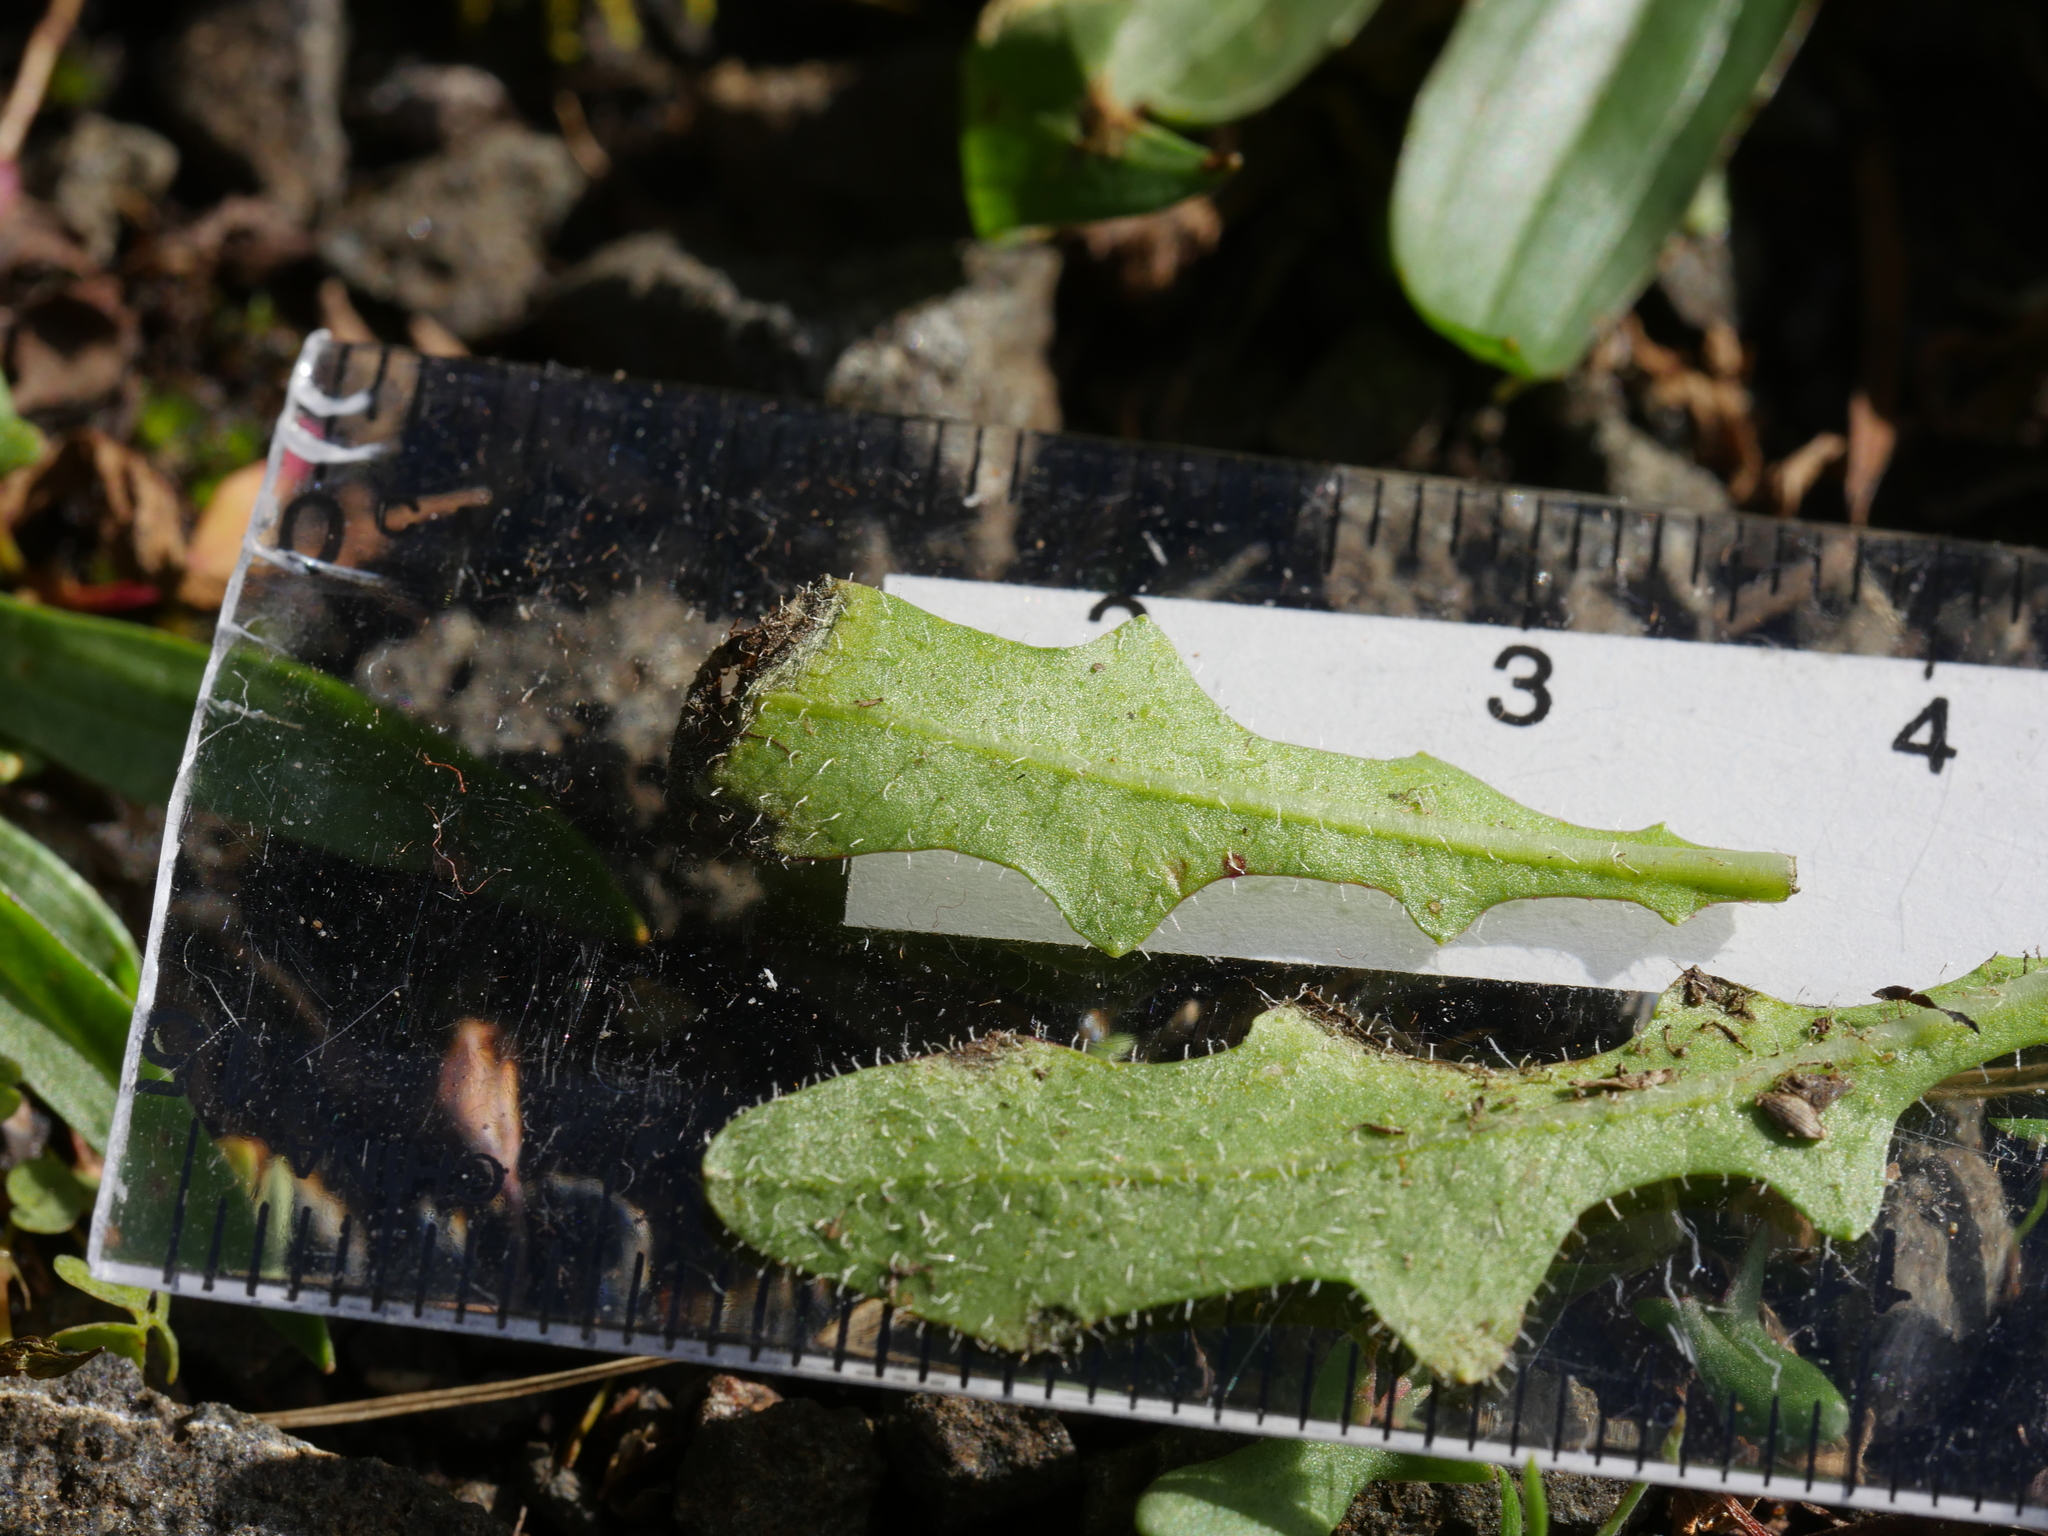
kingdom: Plantae
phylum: Tracheophyta
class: Magnoliopsida
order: Asterales
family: Asteraceae
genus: Thrincia
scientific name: Thrincia saxatilis
